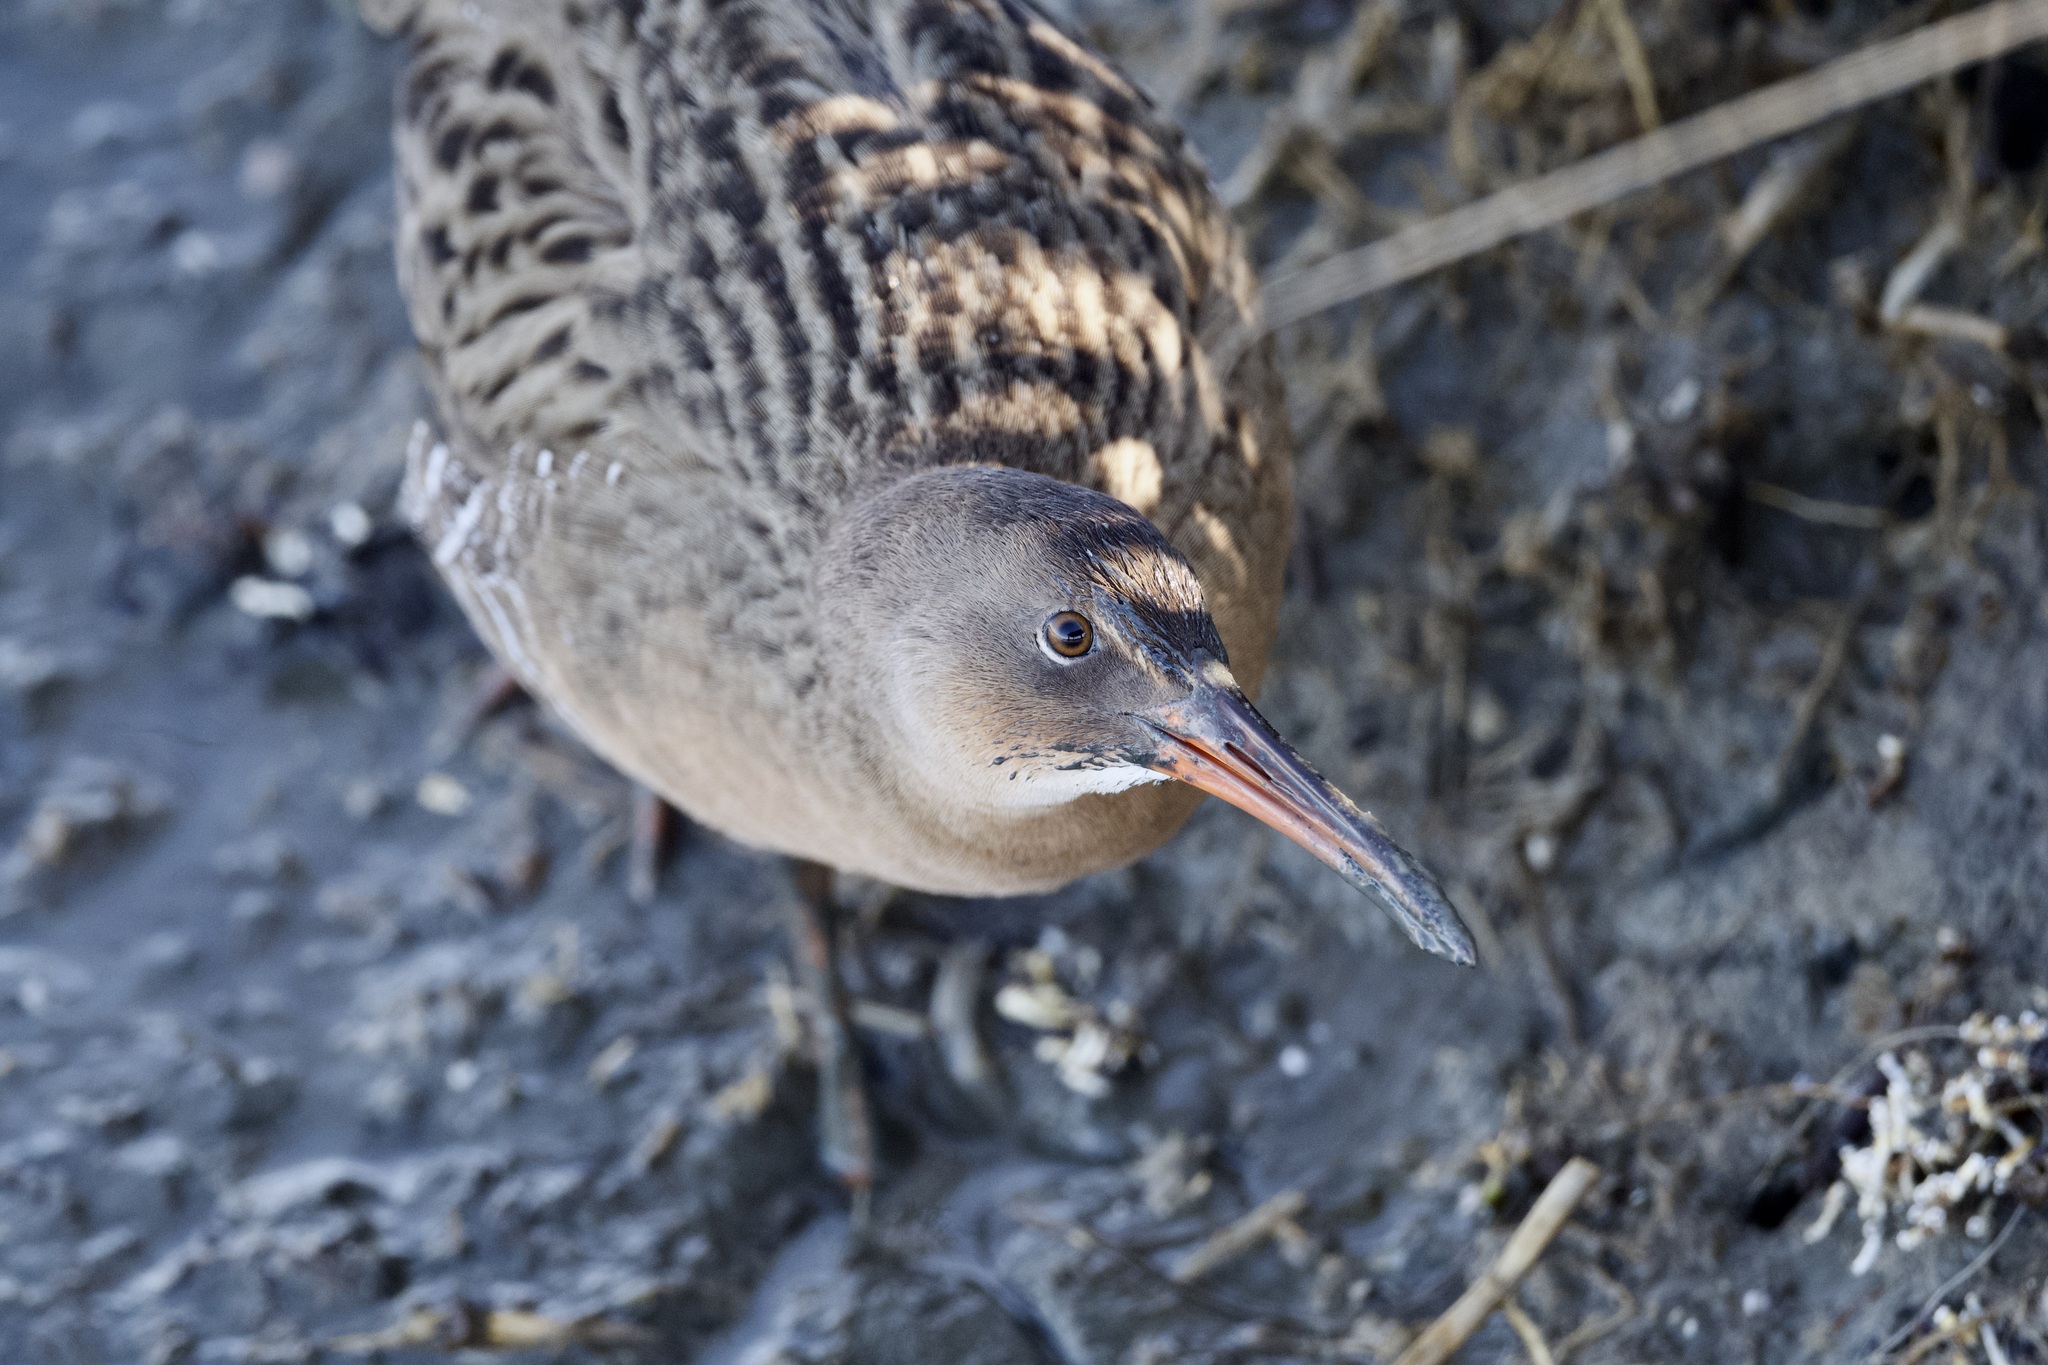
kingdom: Animalia
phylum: Chordata
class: Aves
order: Gruiformes
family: Rallidae
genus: Rallus
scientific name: Rallus obsoletus
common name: Ridgway's rail
